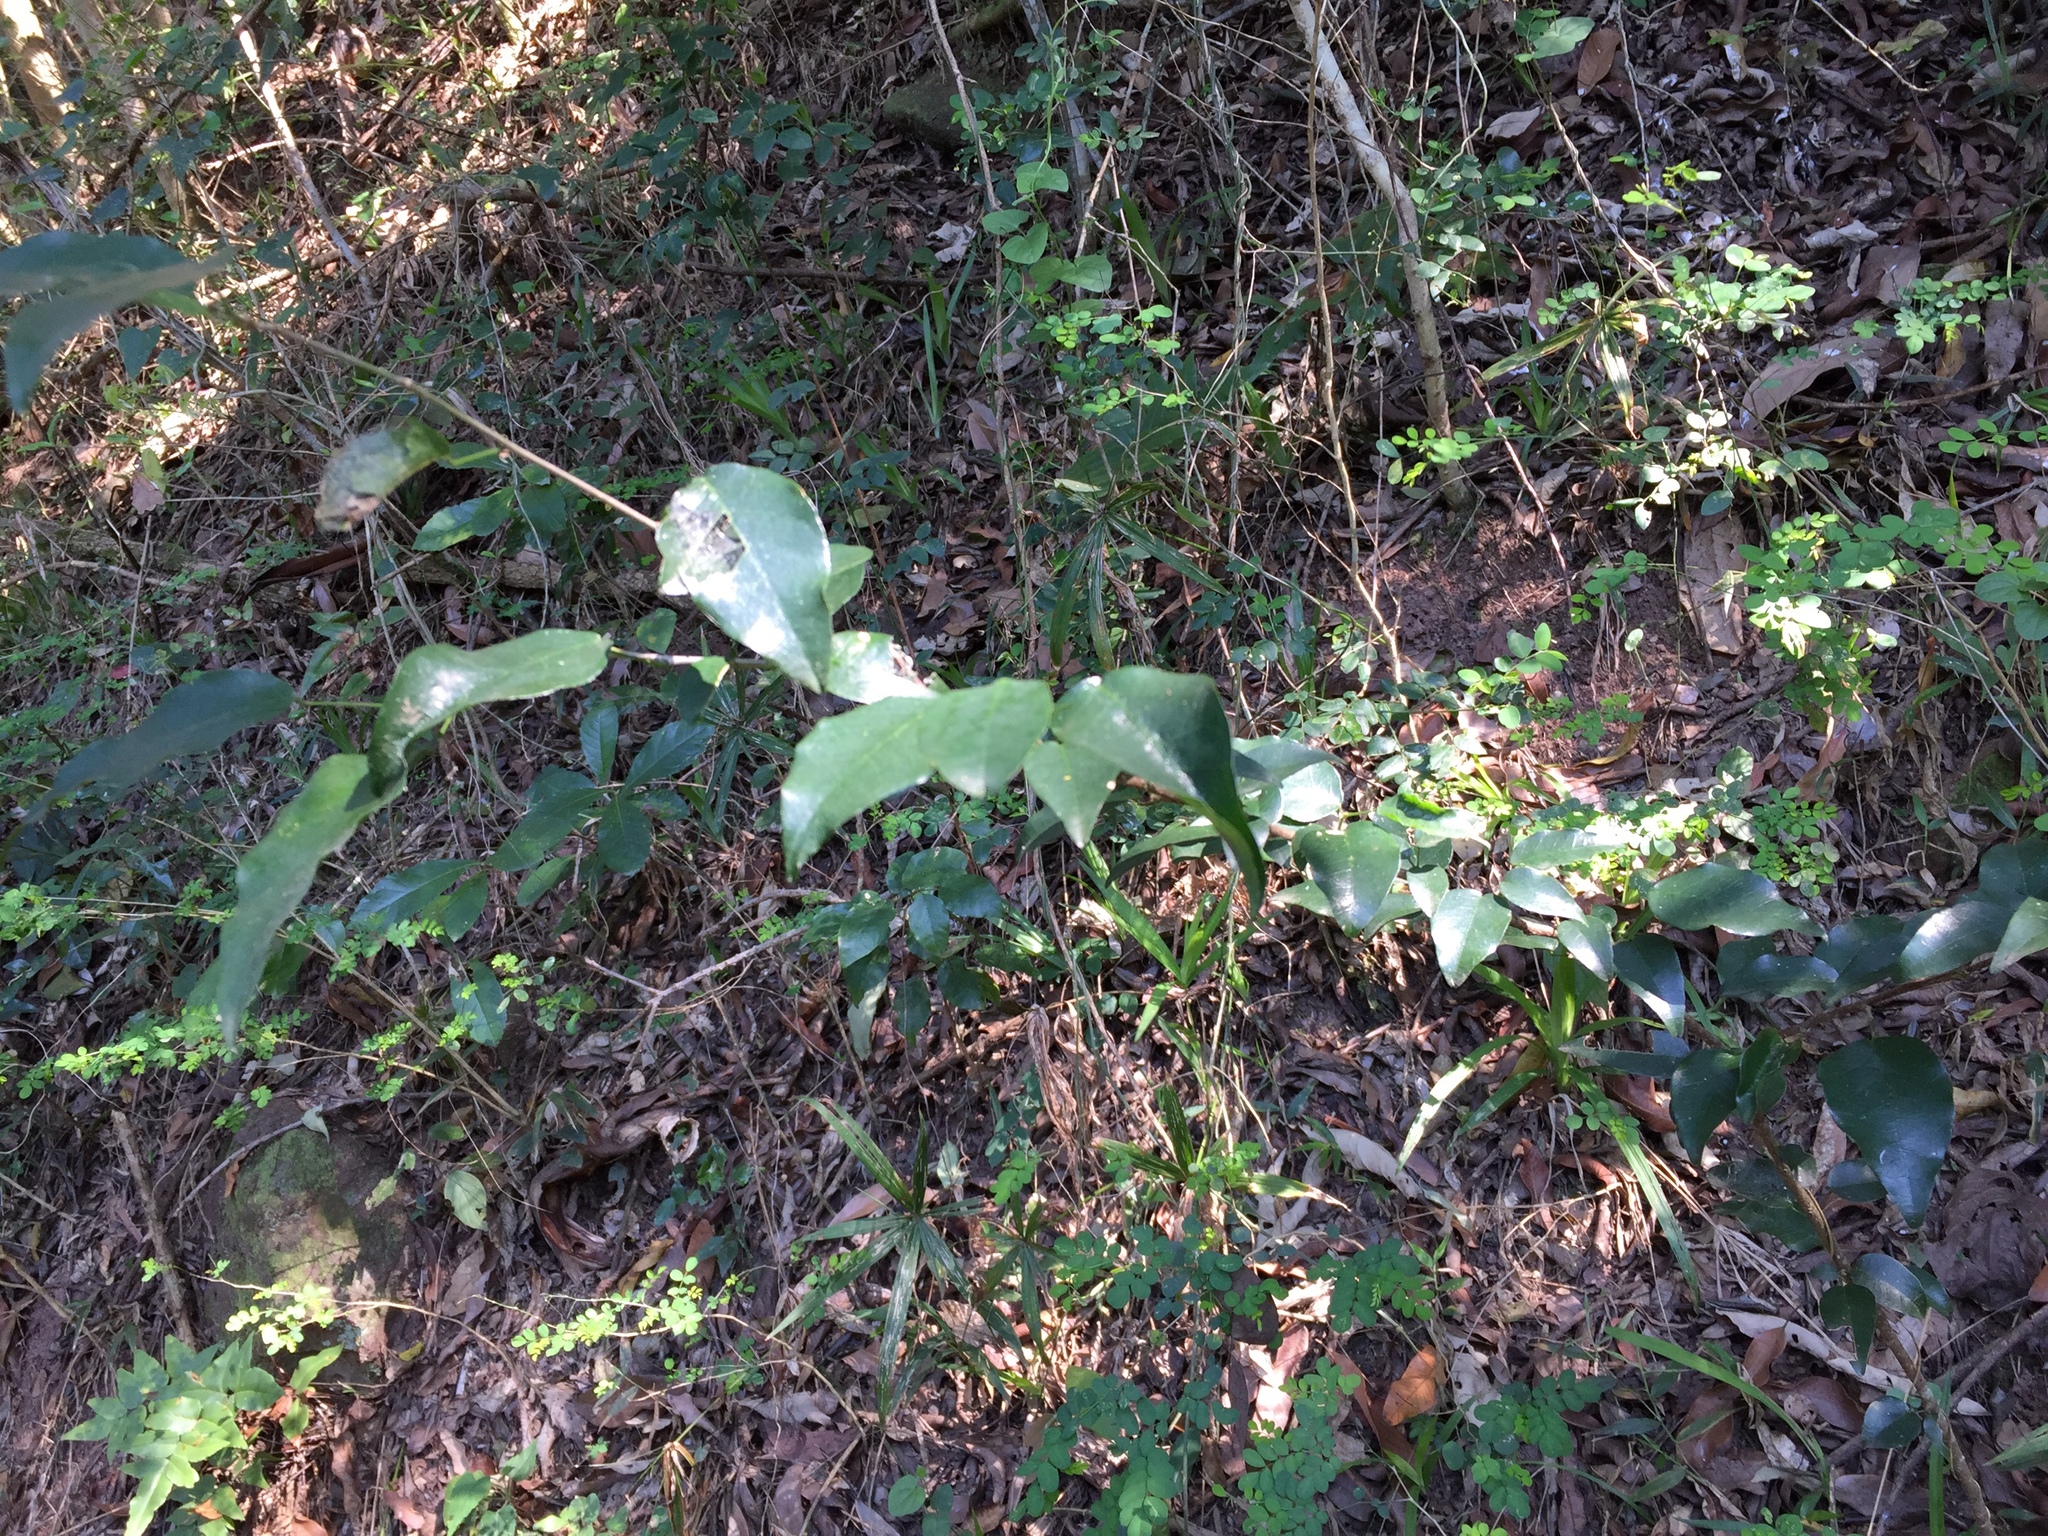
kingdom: Plantae
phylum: Tracheophyta
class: Magnoliopsida
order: Fabales
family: Fabaceae
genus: Bracteolaria
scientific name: Bracteolaria racemosa
